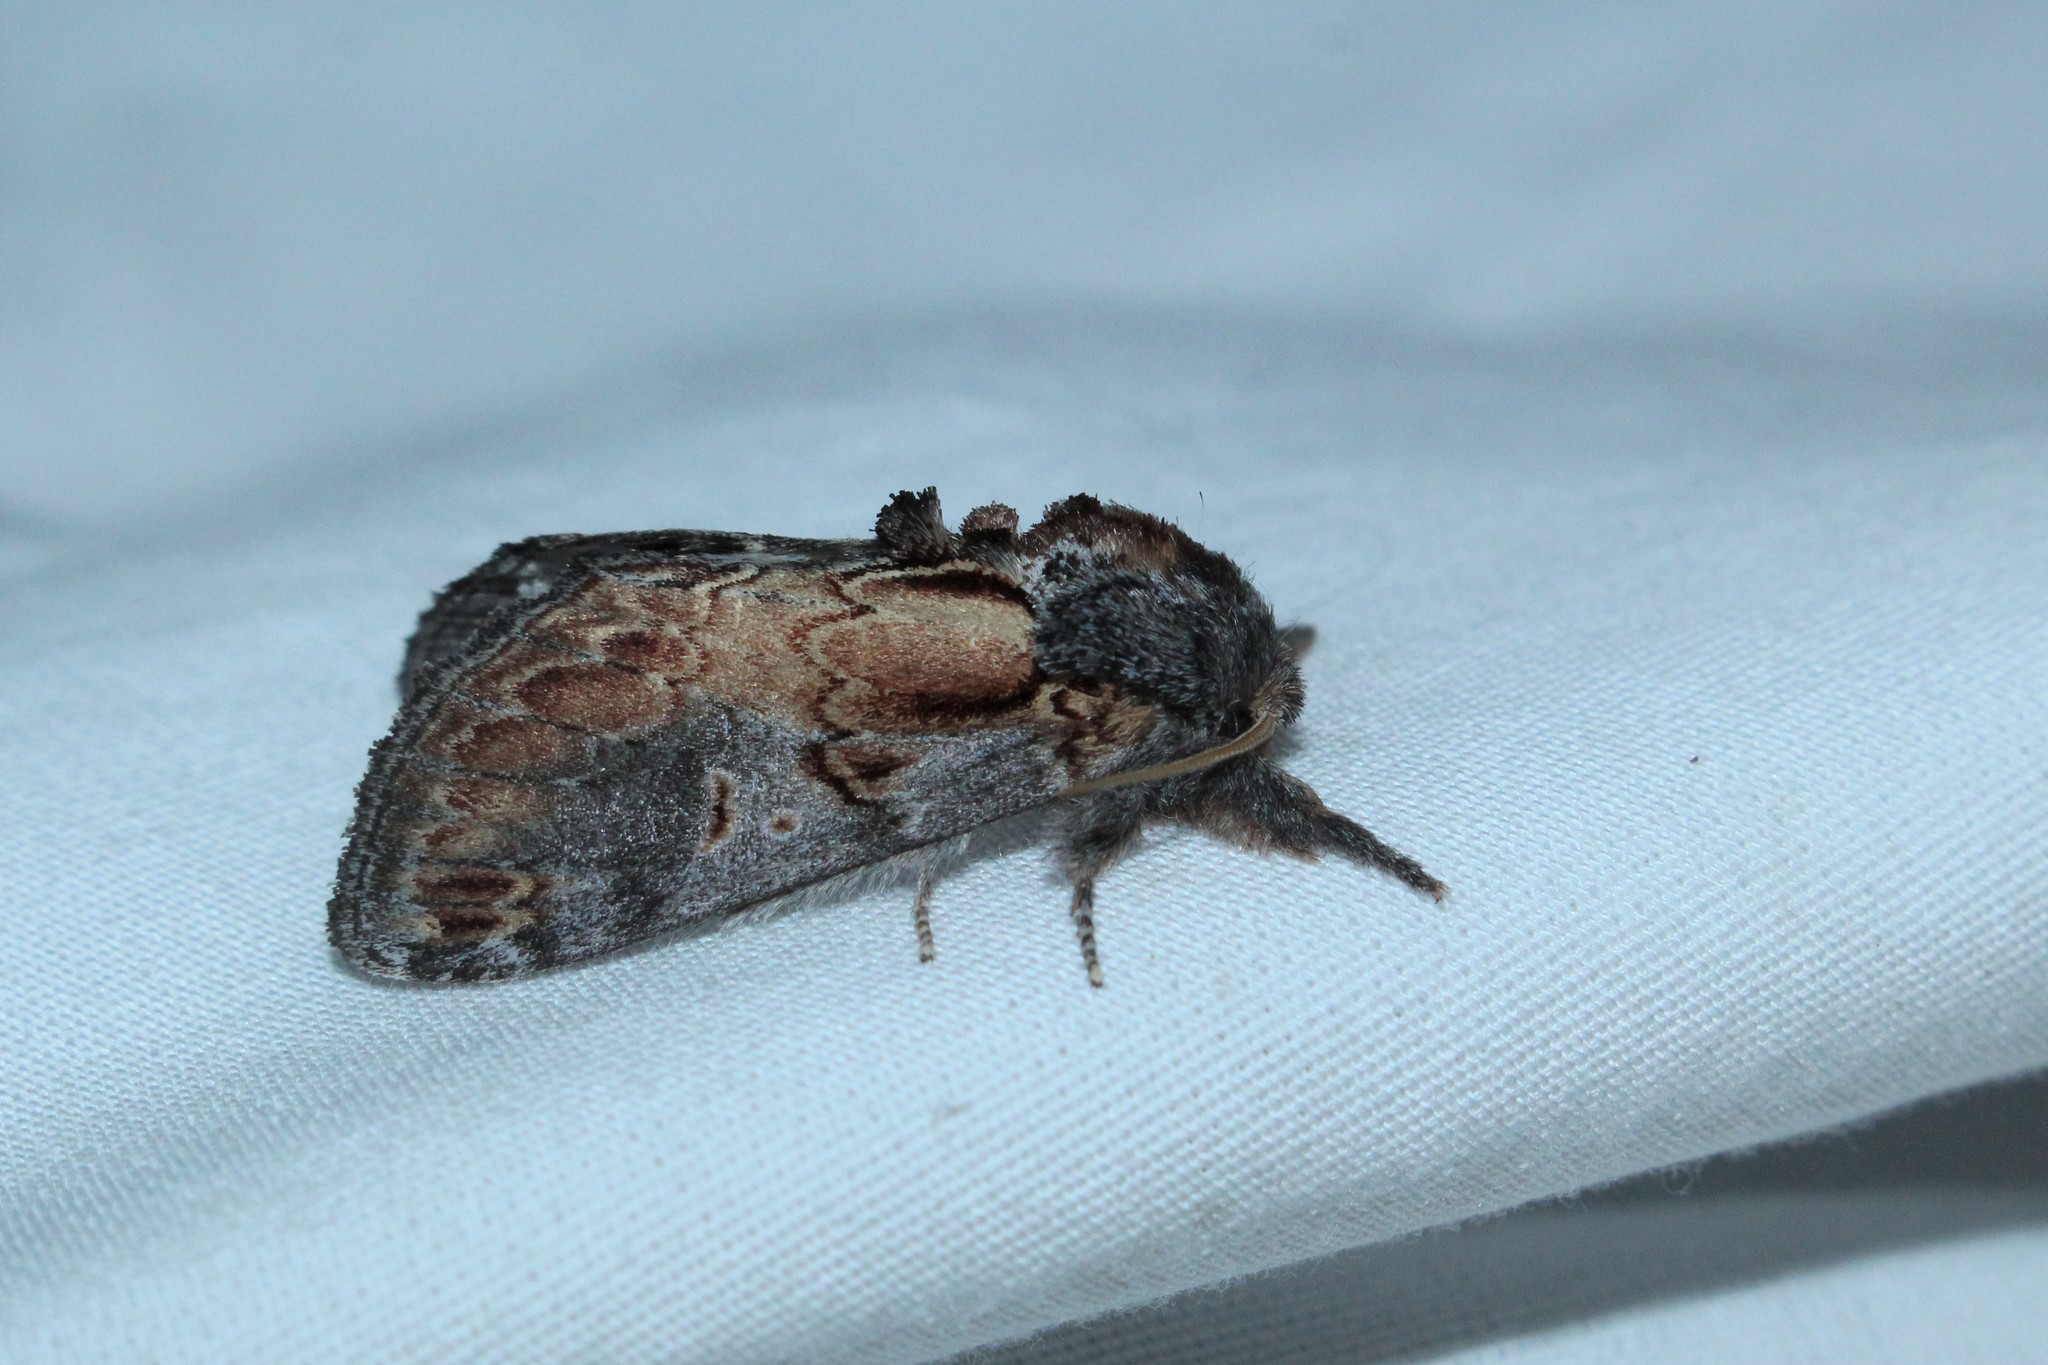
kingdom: Animalia
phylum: Arthropoda
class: Insecta
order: Lepidoptera
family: Notodontidae
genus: Notodonta
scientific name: Notodonta scitipennis
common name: Finned-willow prominent moth
